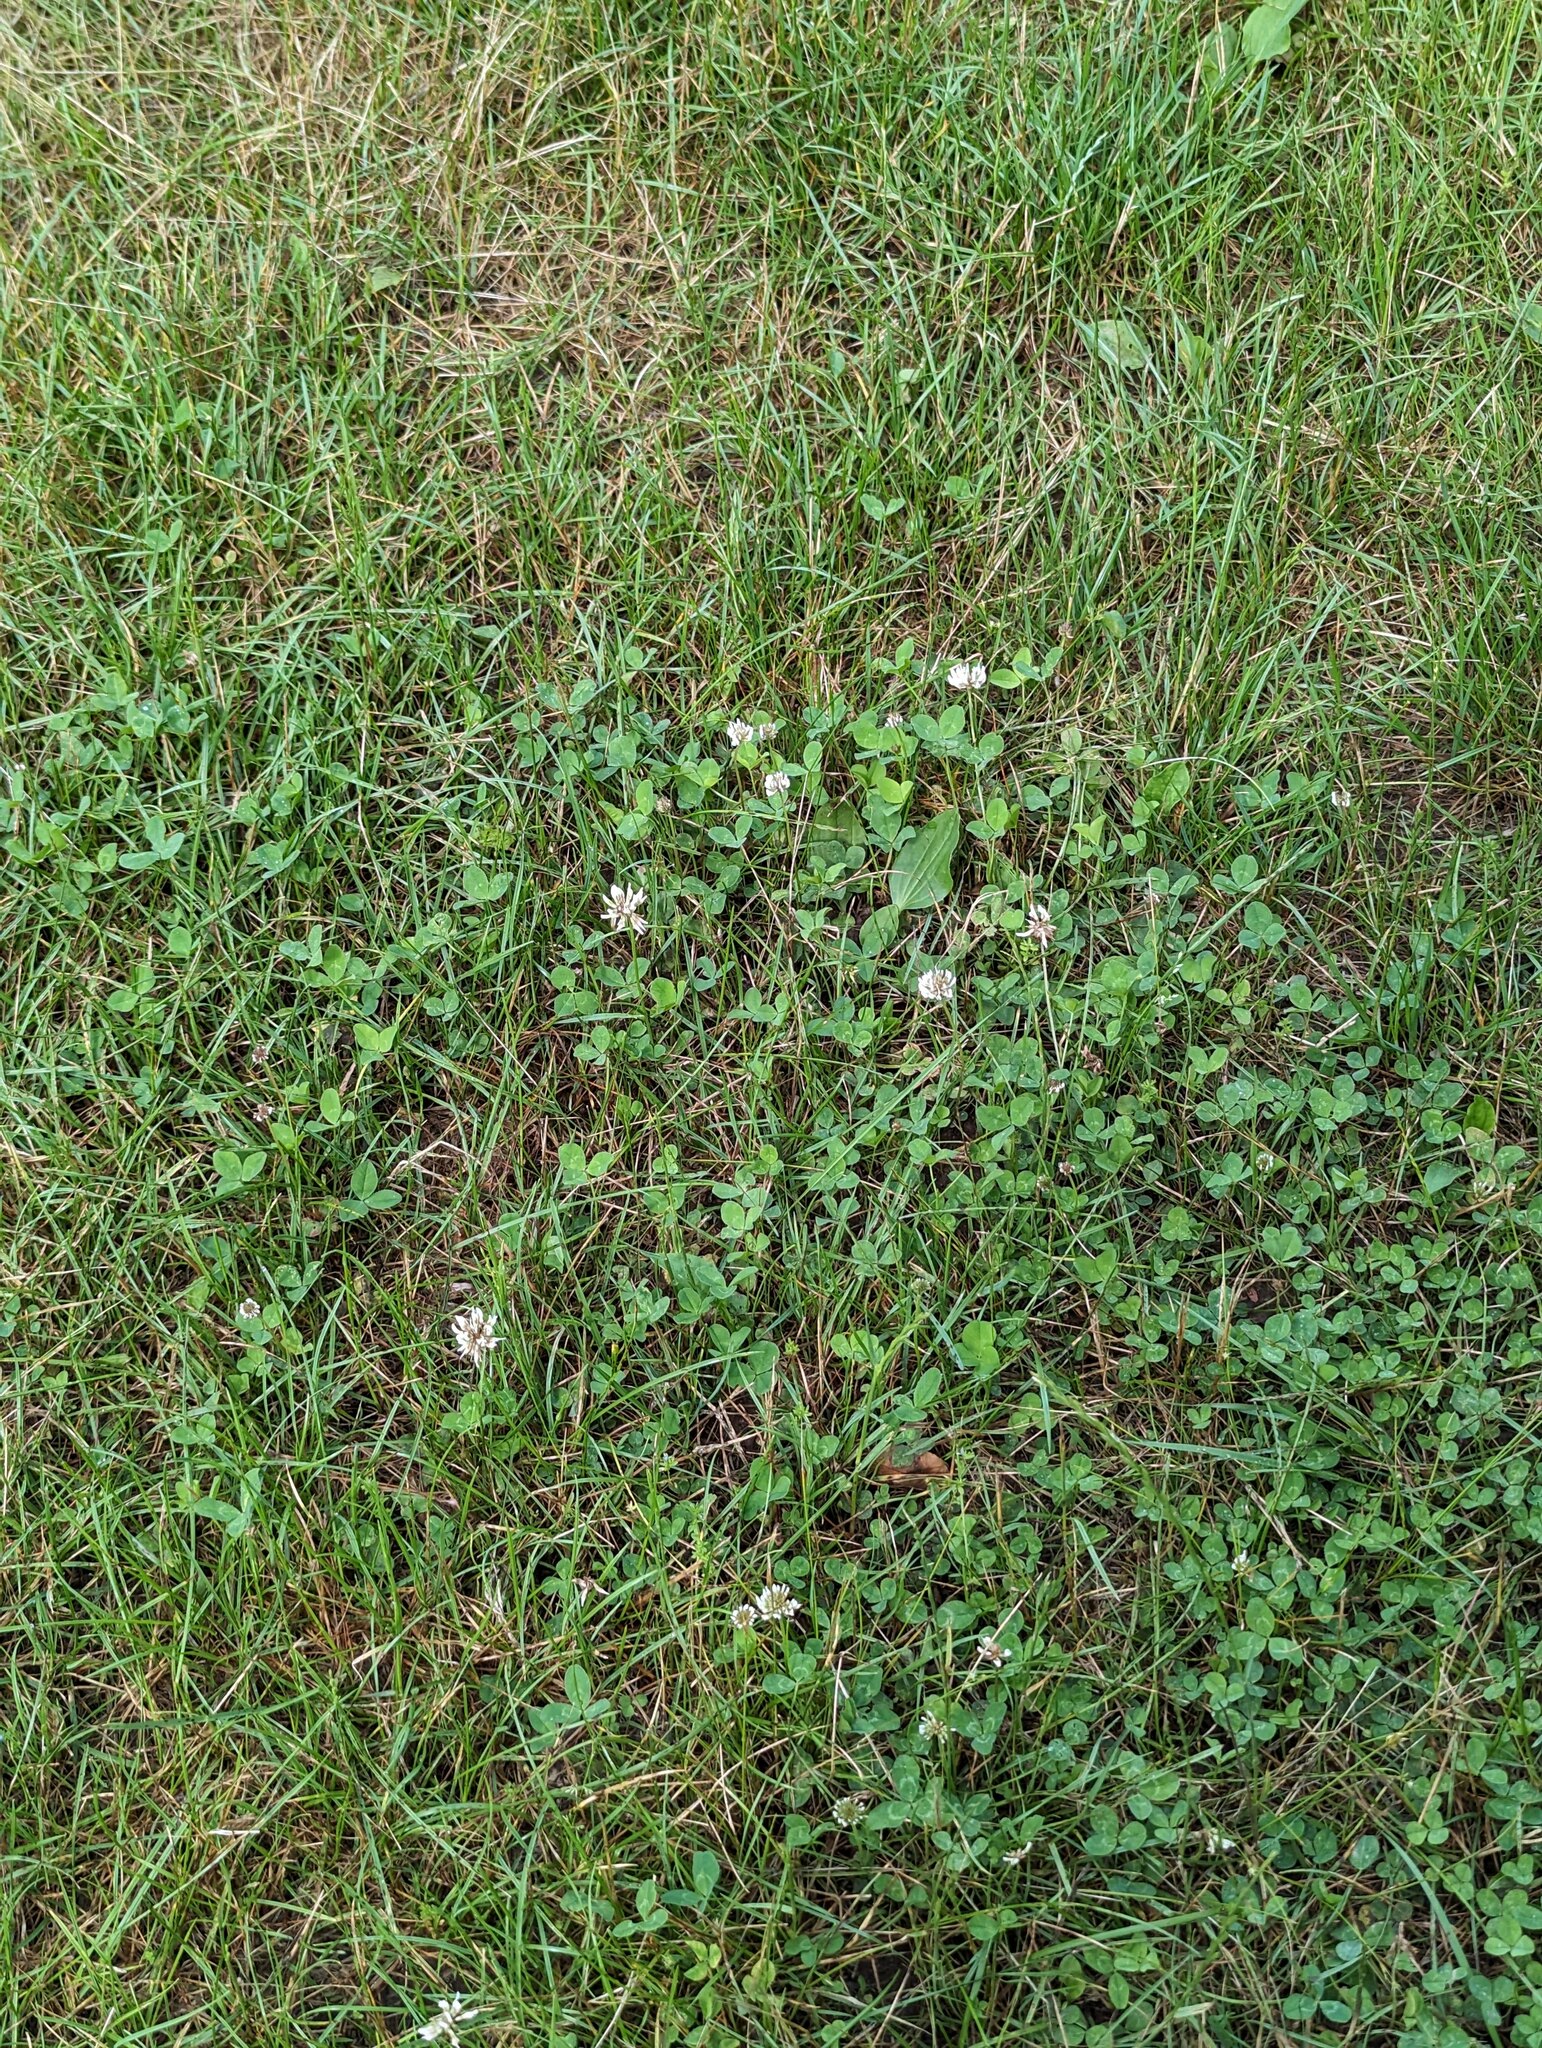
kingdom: Plantae
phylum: Tracheophyta
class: Magnoliopsida
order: Fabales
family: Fabaceae
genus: Trifolium
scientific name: Trifolium repens
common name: White clover
